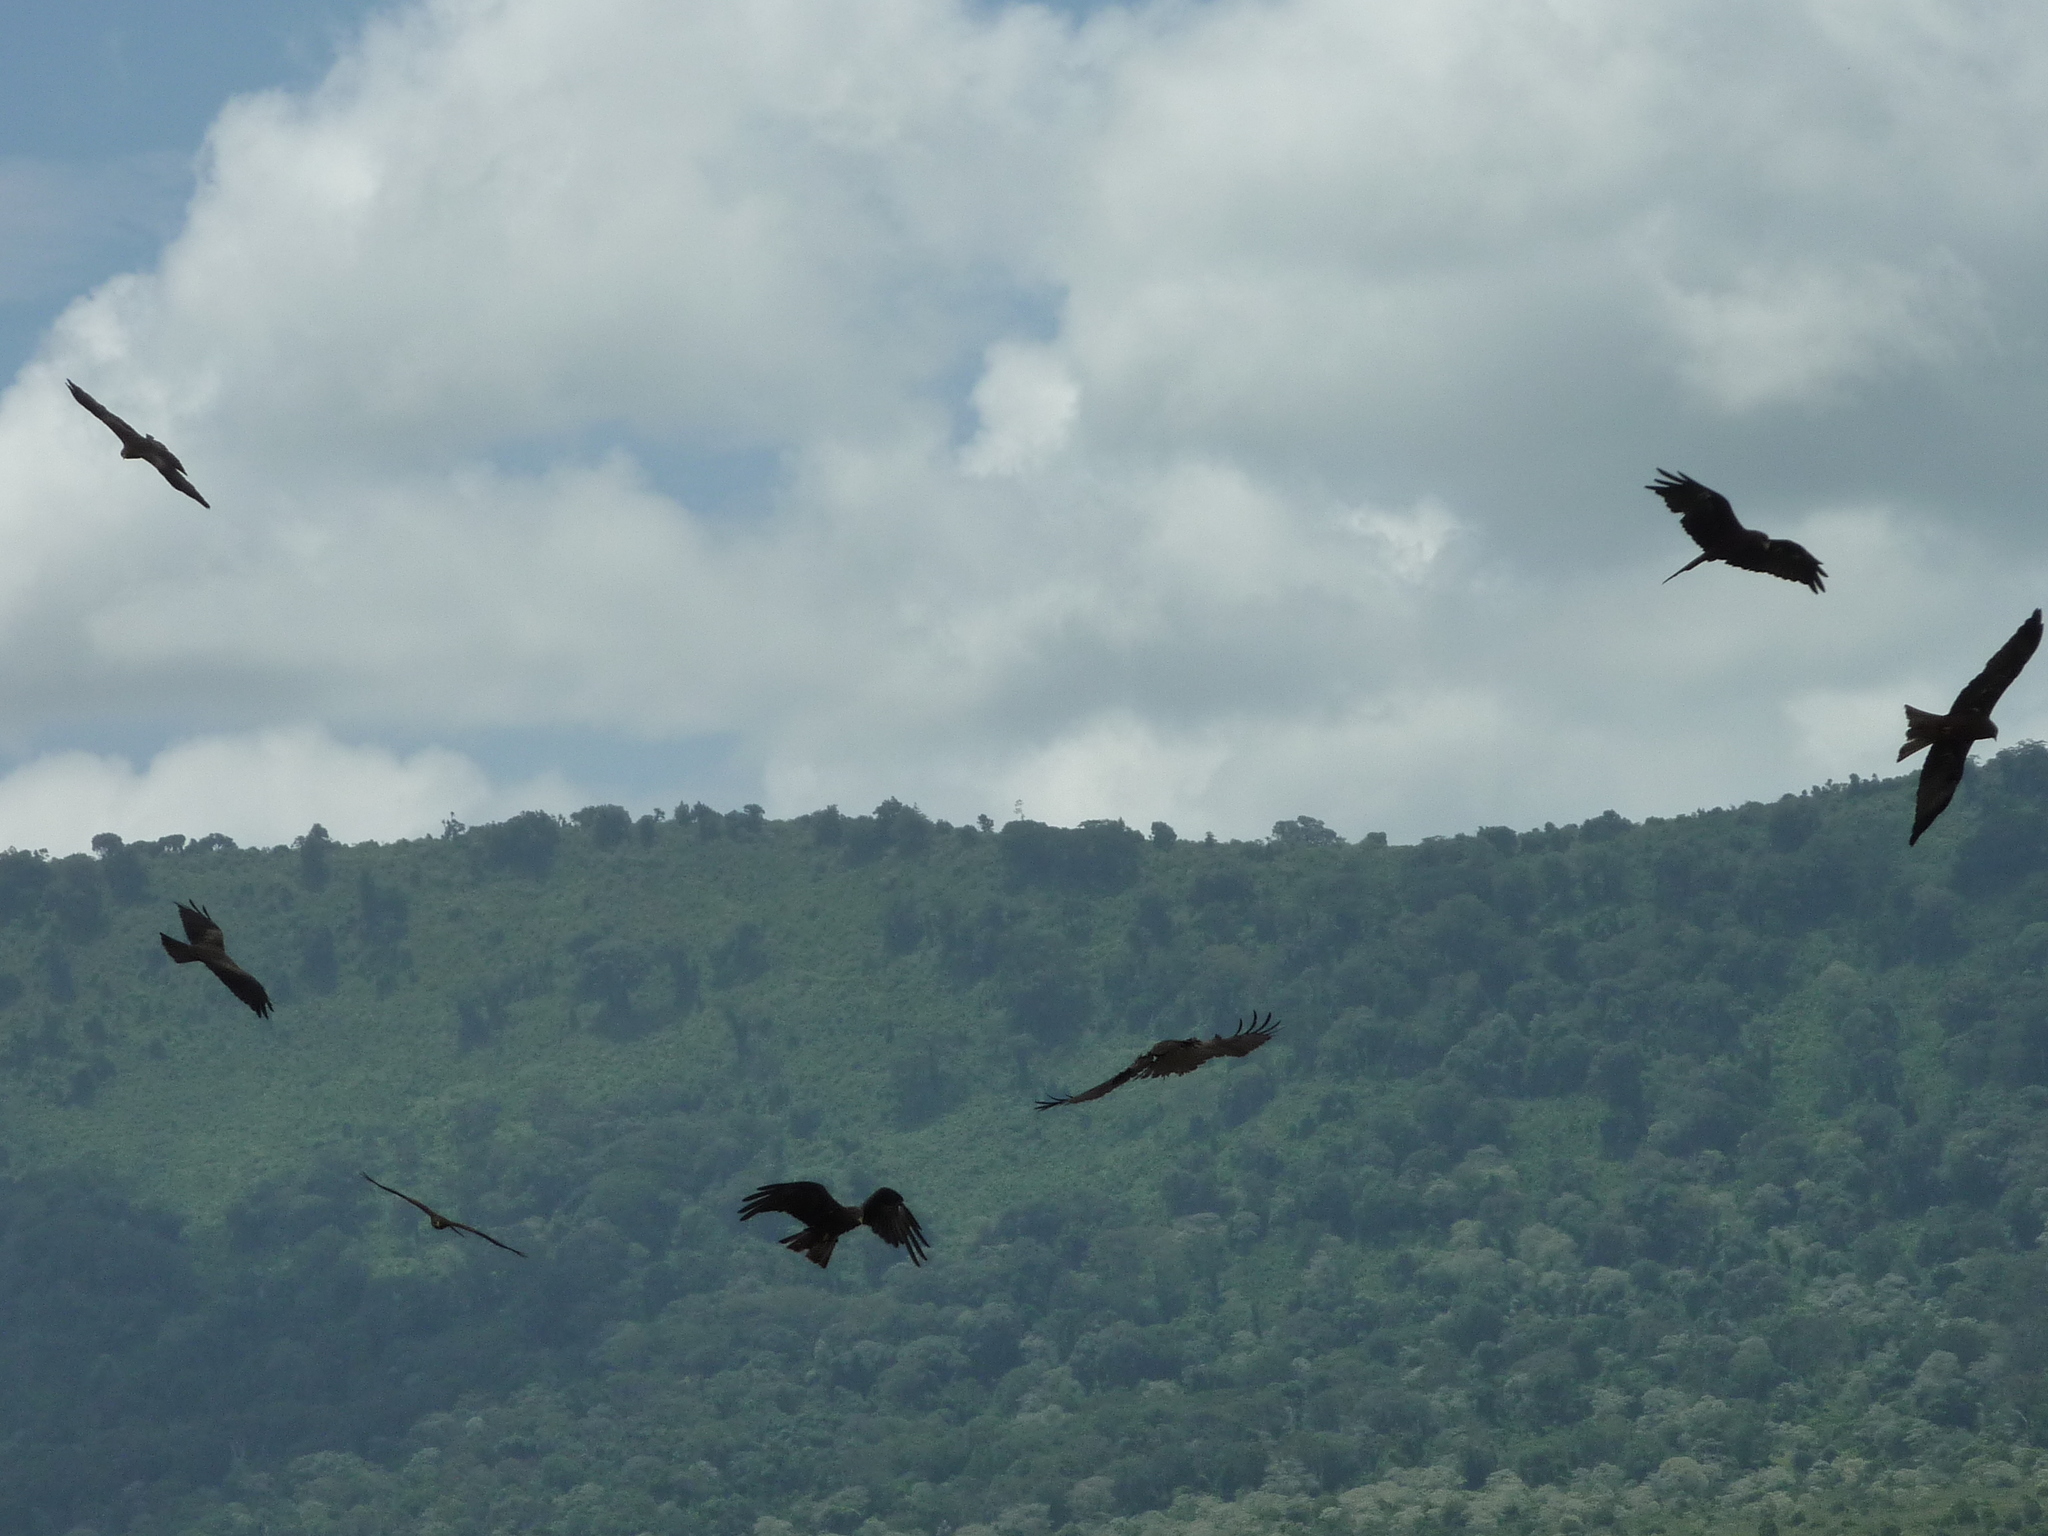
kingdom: Animalia
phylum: Chordata
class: Aves
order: Accipitriformes
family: Accipitridae
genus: Milvus
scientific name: Milvus migrans
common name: Black kite
